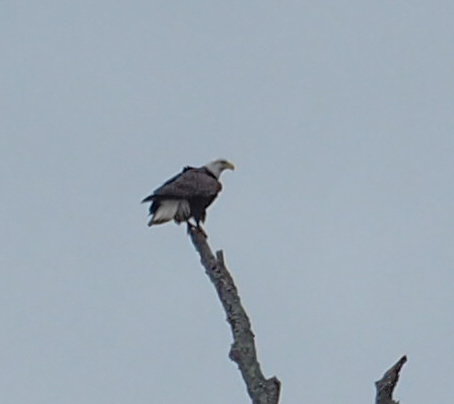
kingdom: Animalia
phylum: Chordata
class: Aves
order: Accipitriformes
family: Accipitridae
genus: Haliaeetus
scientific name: Haliaeetus leucocephalus
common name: Bald eagle
